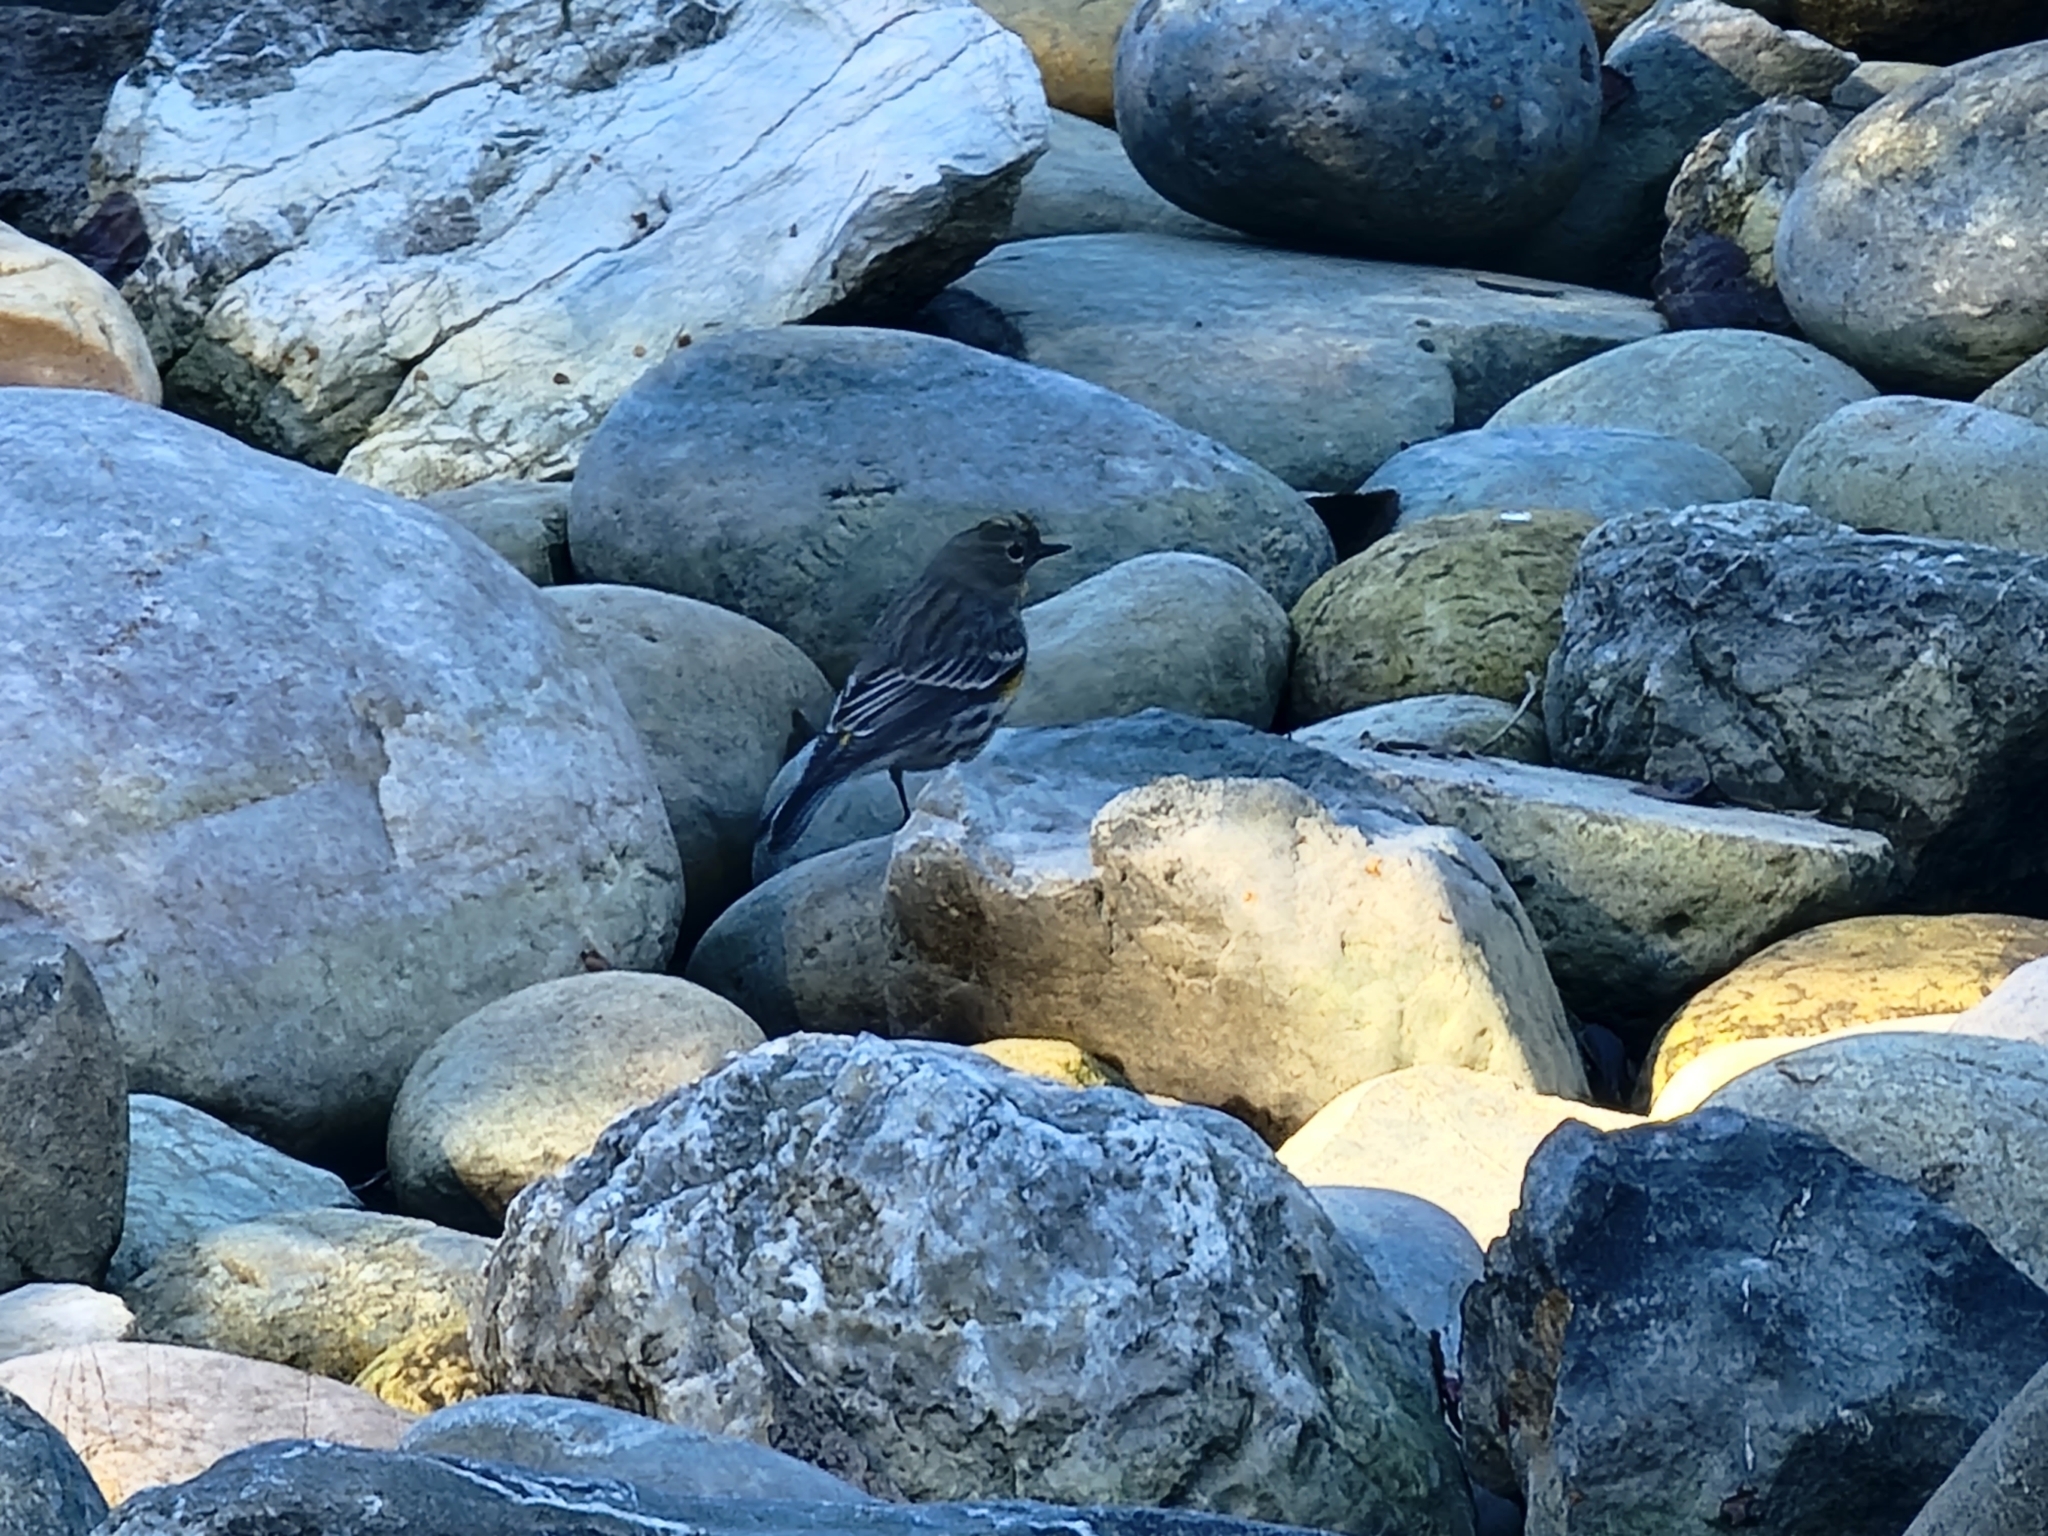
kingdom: Animalia
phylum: Chordata
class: Aves
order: Passeriformes
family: Parulidae
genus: Setophaga
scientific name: Setophaga coronata
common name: Myrtle warbler
